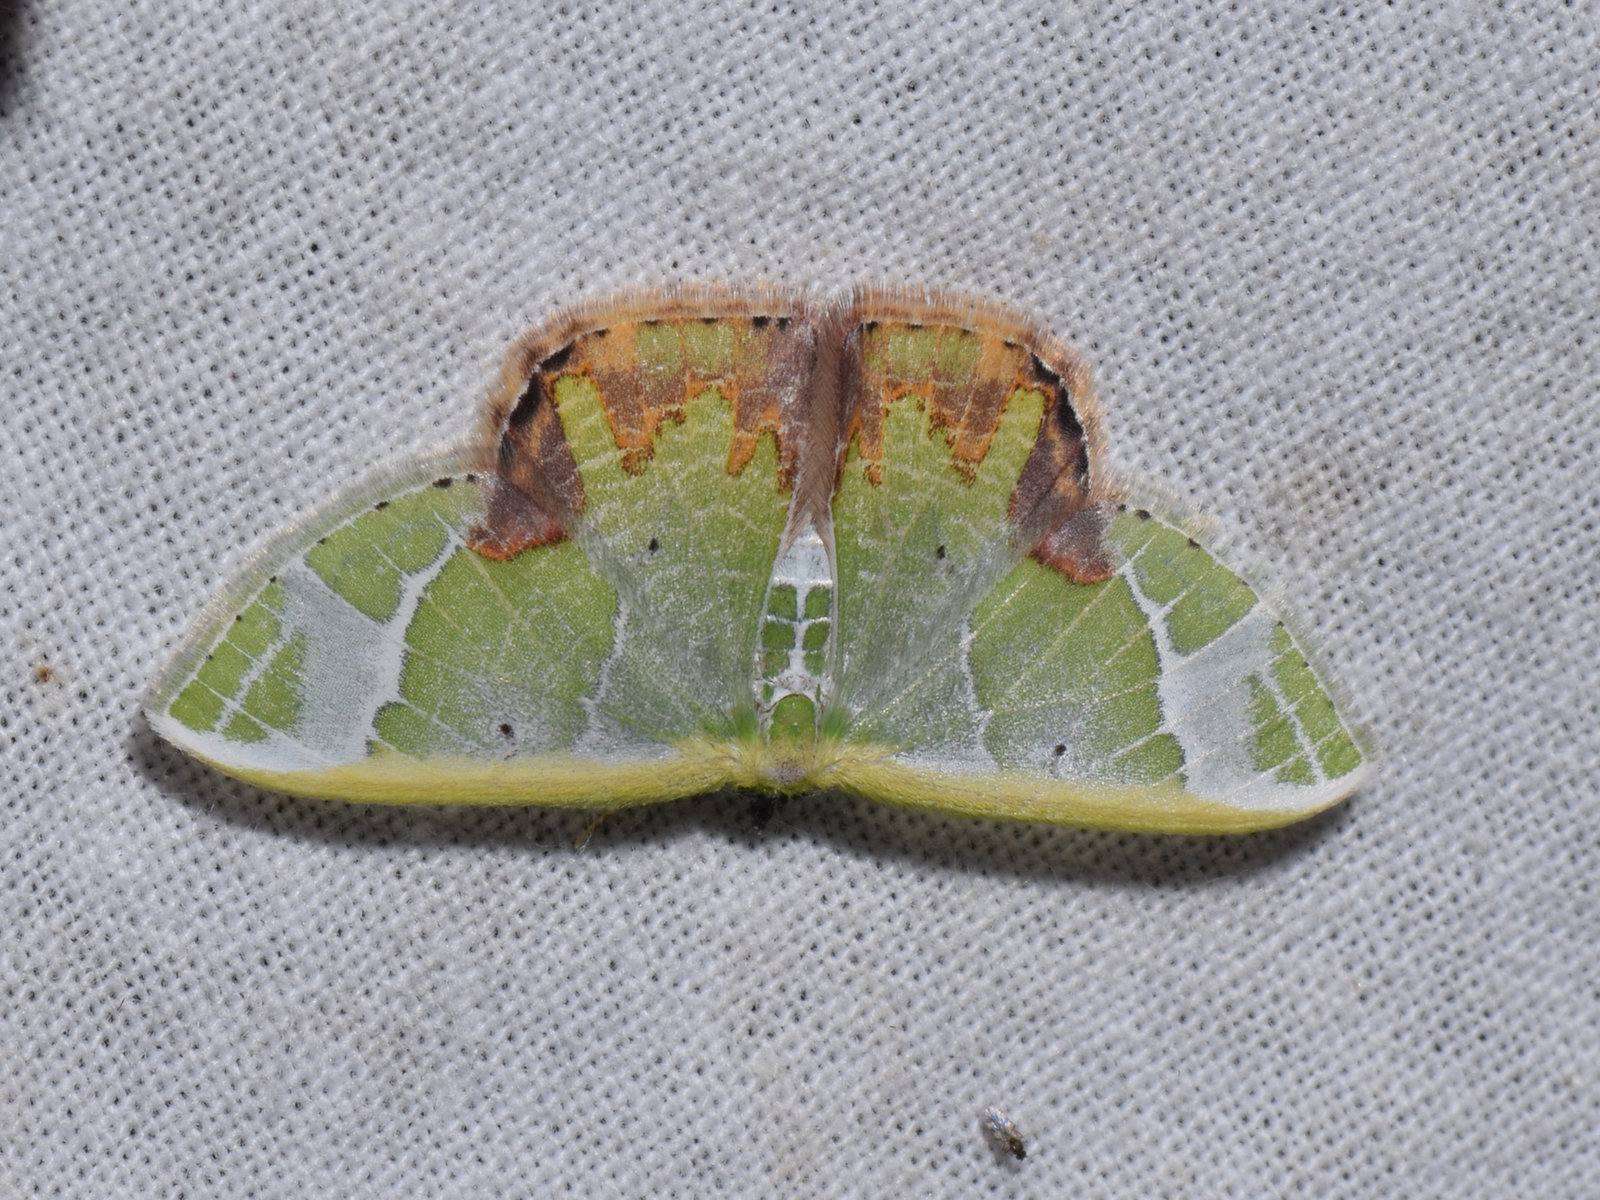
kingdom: Animalia
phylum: Arthropoda
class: Insecta
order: Lepidoptera
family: Geometridae
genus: Comibaena
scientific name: Comibaena pictipennis
